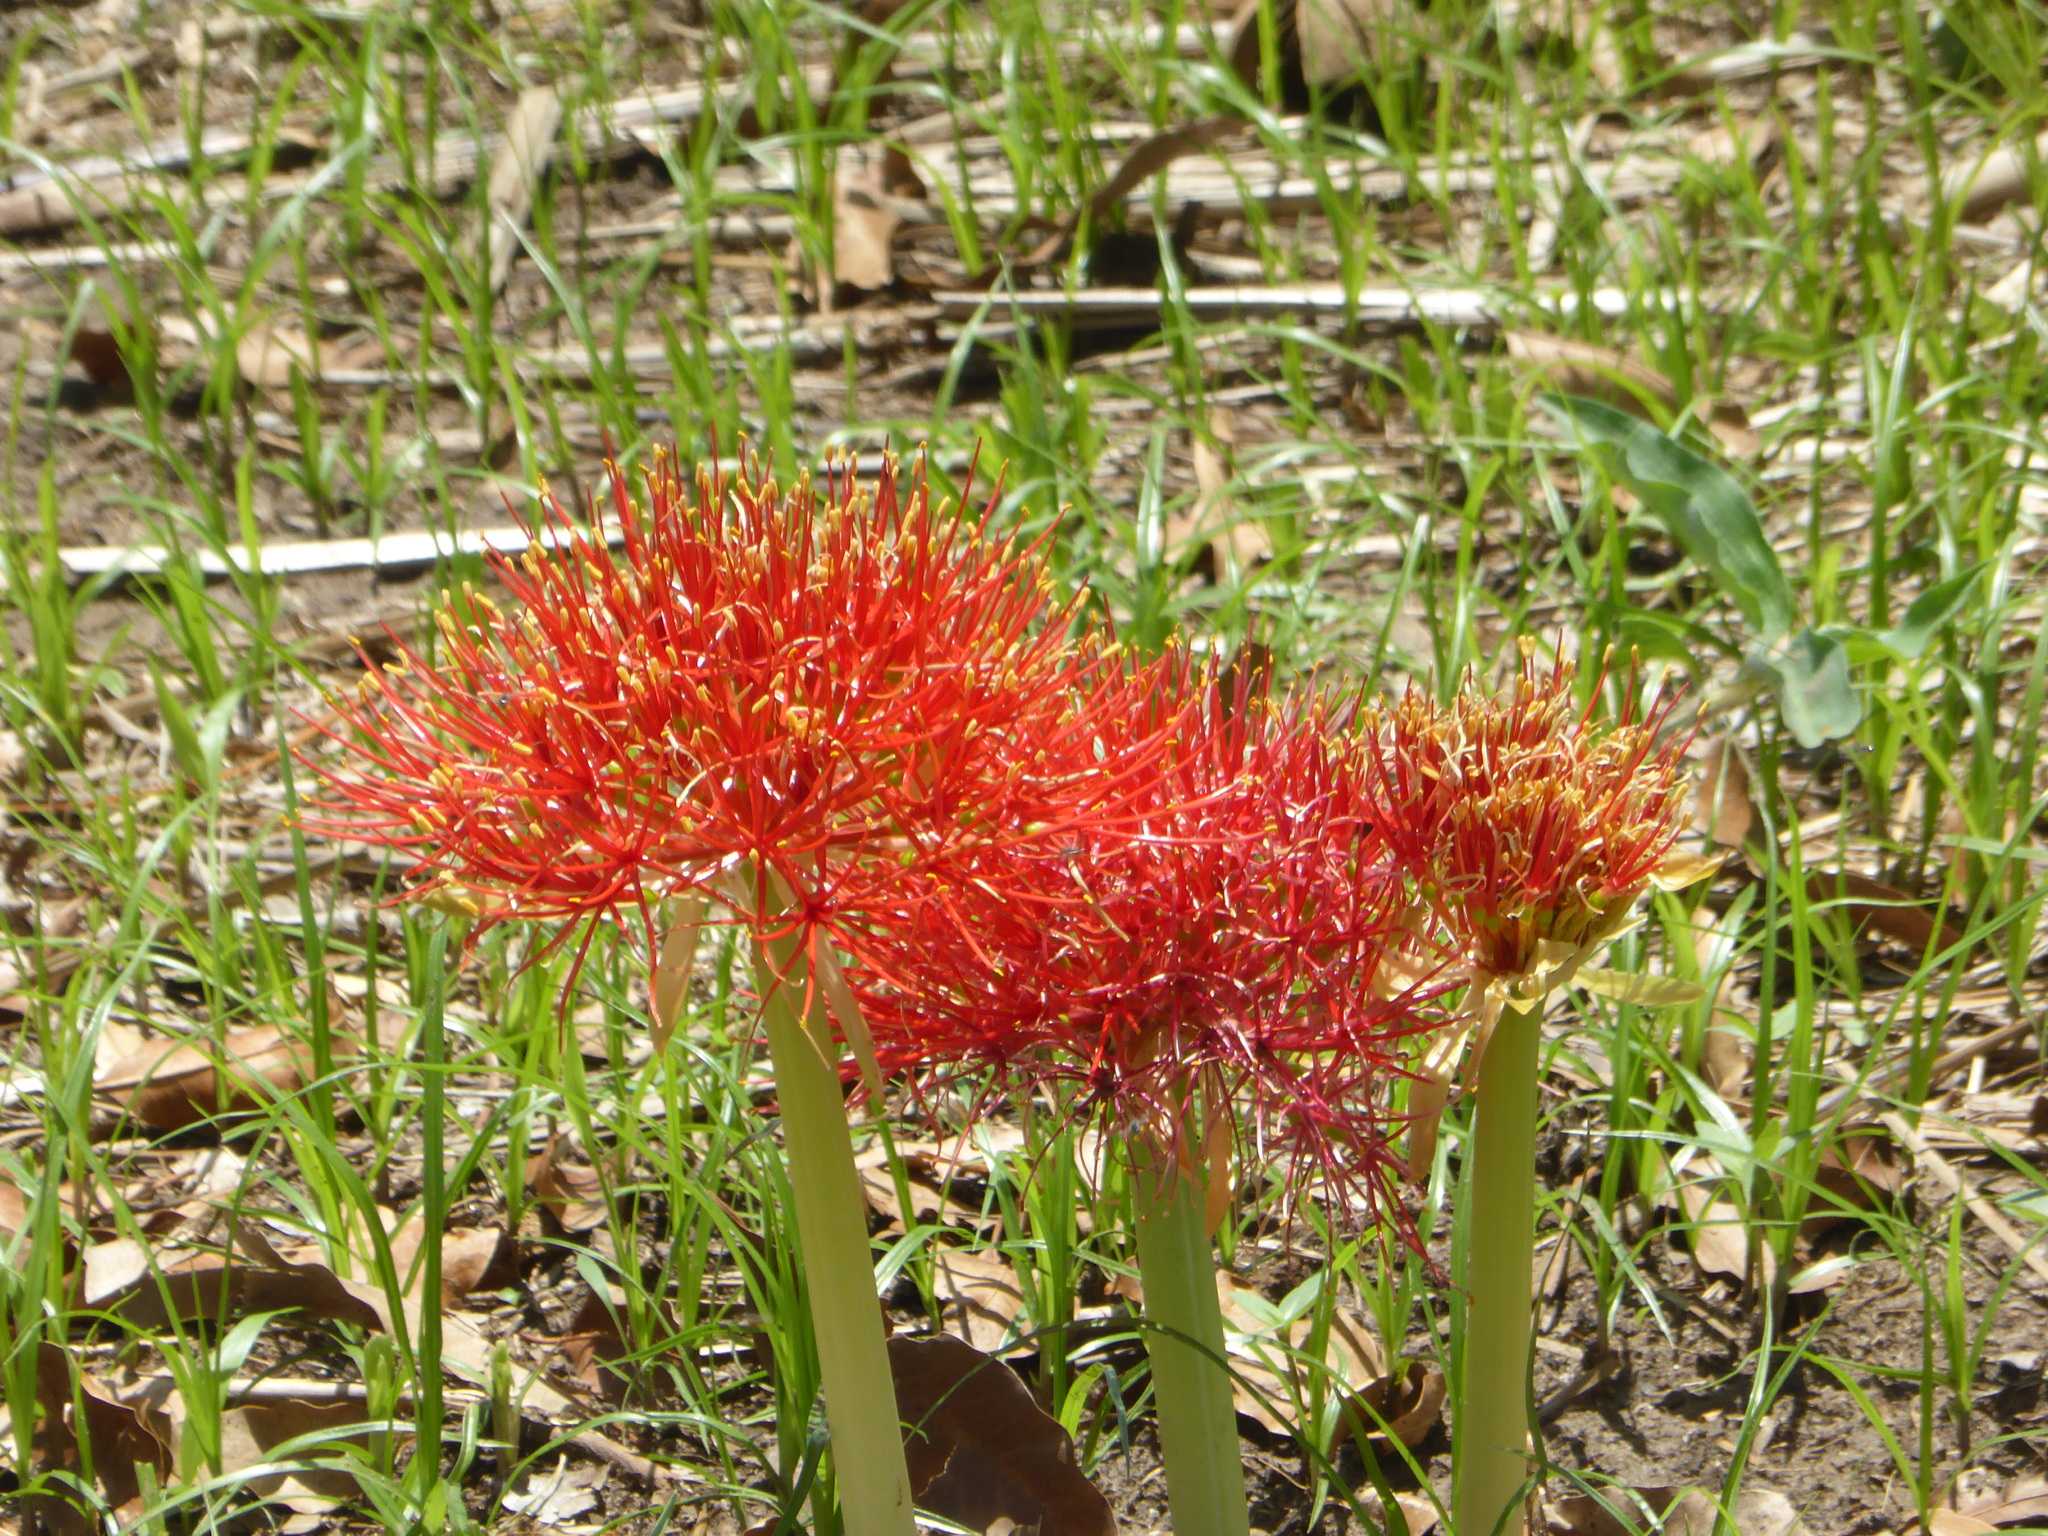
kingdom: Plantae
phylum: Tracheophyta
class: Liliopsida
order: Asparagales
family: Amaryllidaceae
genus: Scadoxus
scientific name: Scadoxus multiflorus
